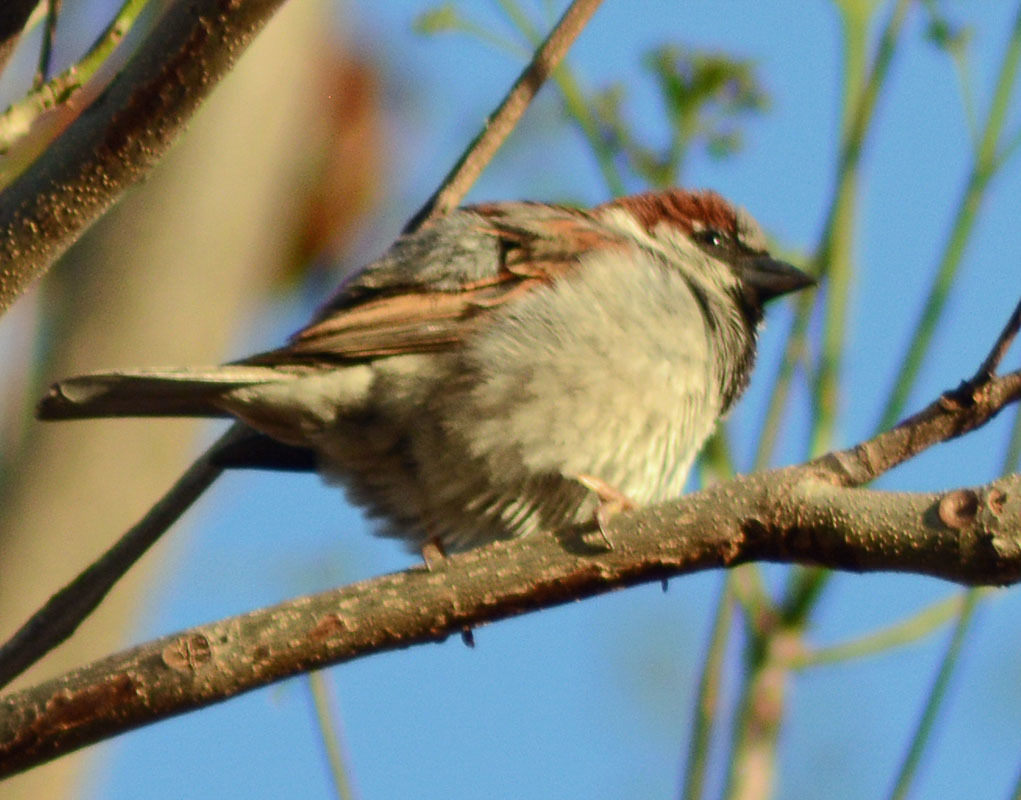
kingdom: Animalia
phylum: Chordata
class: Aves
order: Passeriformes
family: Passeridae
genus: Passer
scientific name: Passer domesticus
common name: House sparrow
